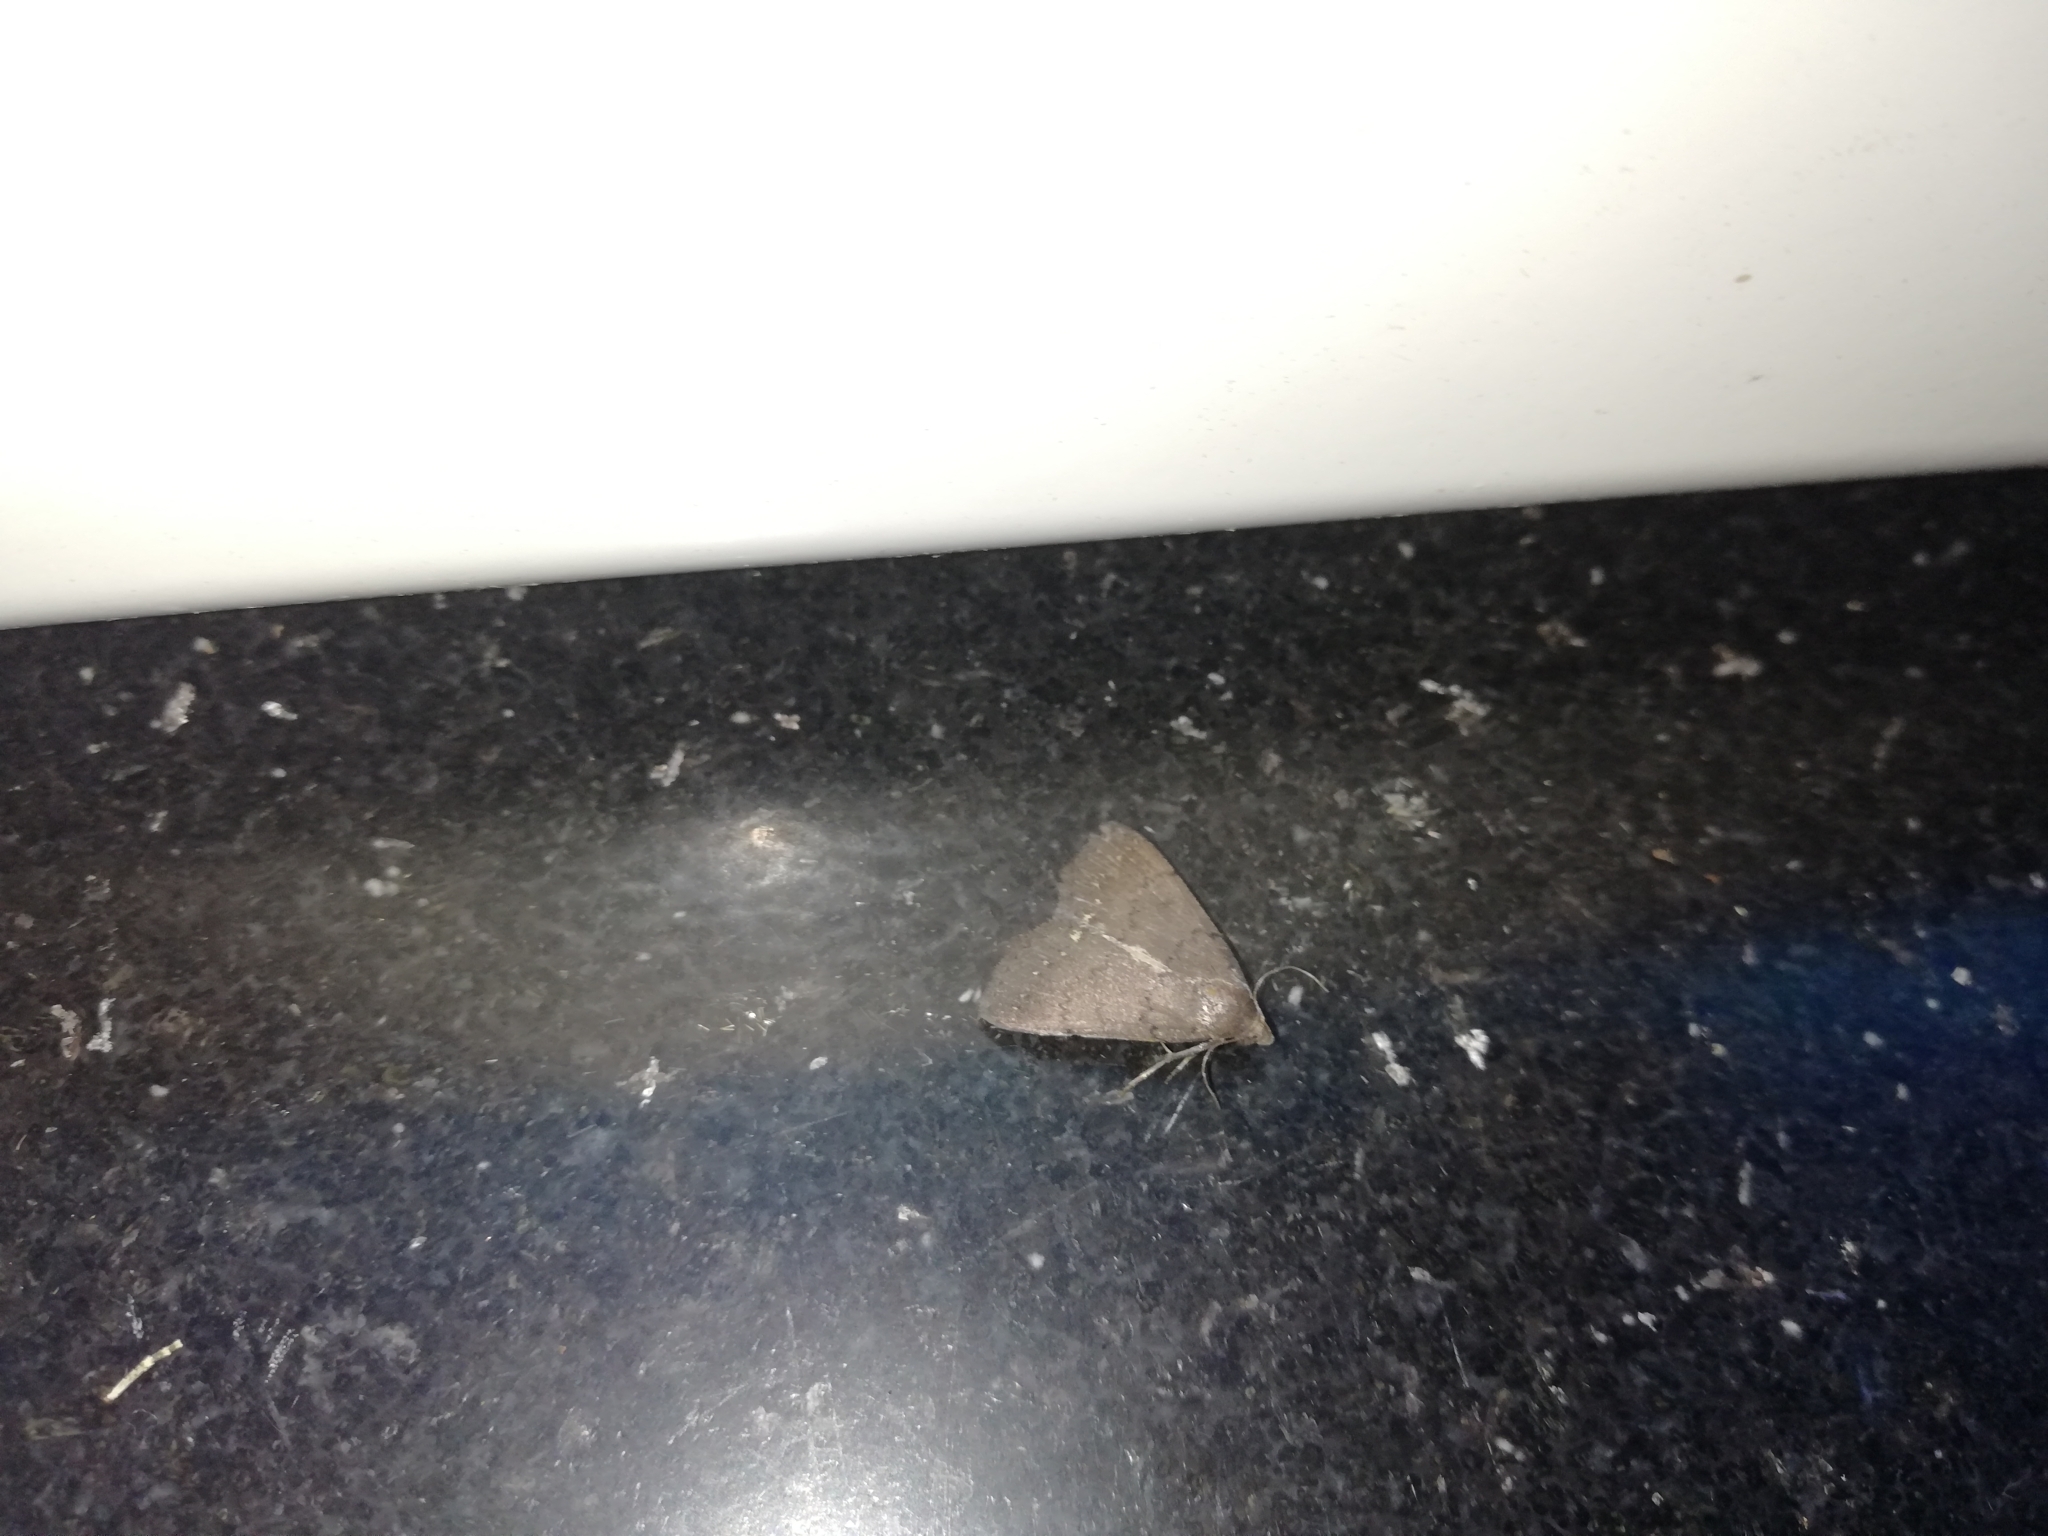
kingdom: Animalia
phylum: Arthropoda
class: Insecta
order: Lepidoptera
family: Erebidae
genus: Nodaria
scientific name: Nodaria externalis
